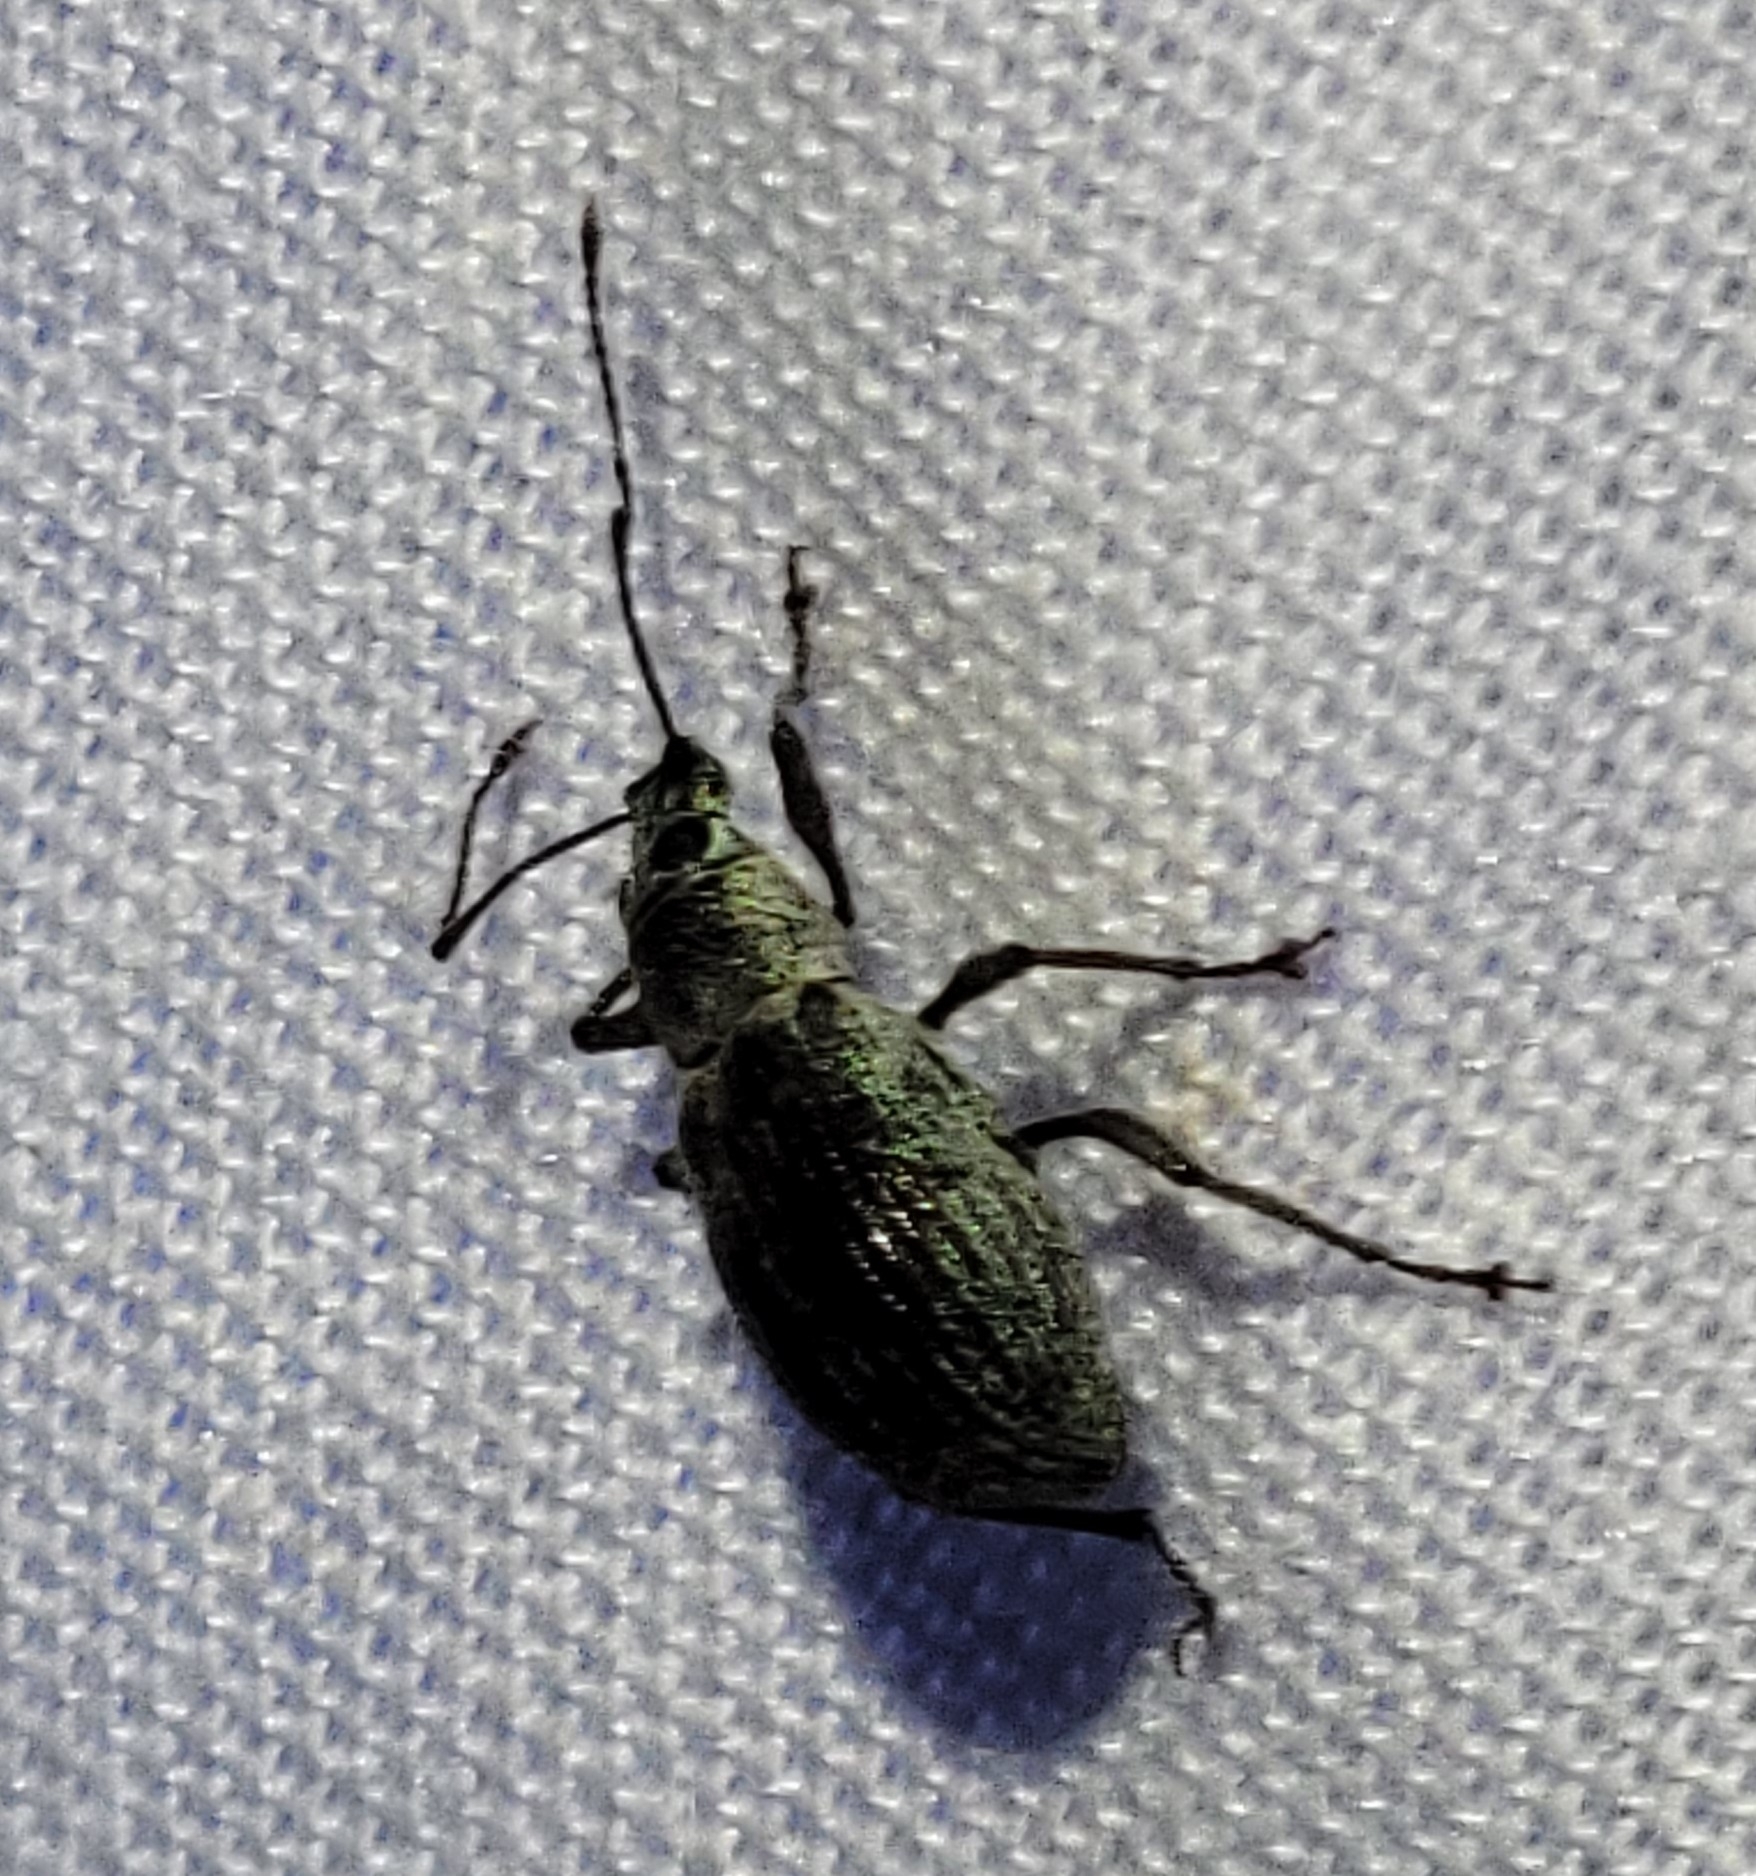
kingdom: Animalia
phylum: Arthropoda
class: Insecta
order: Coleoptera
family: Curculionidae
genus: Cyrtepistomus
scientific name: Cyrtepistomus castaneus
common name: Weevil
